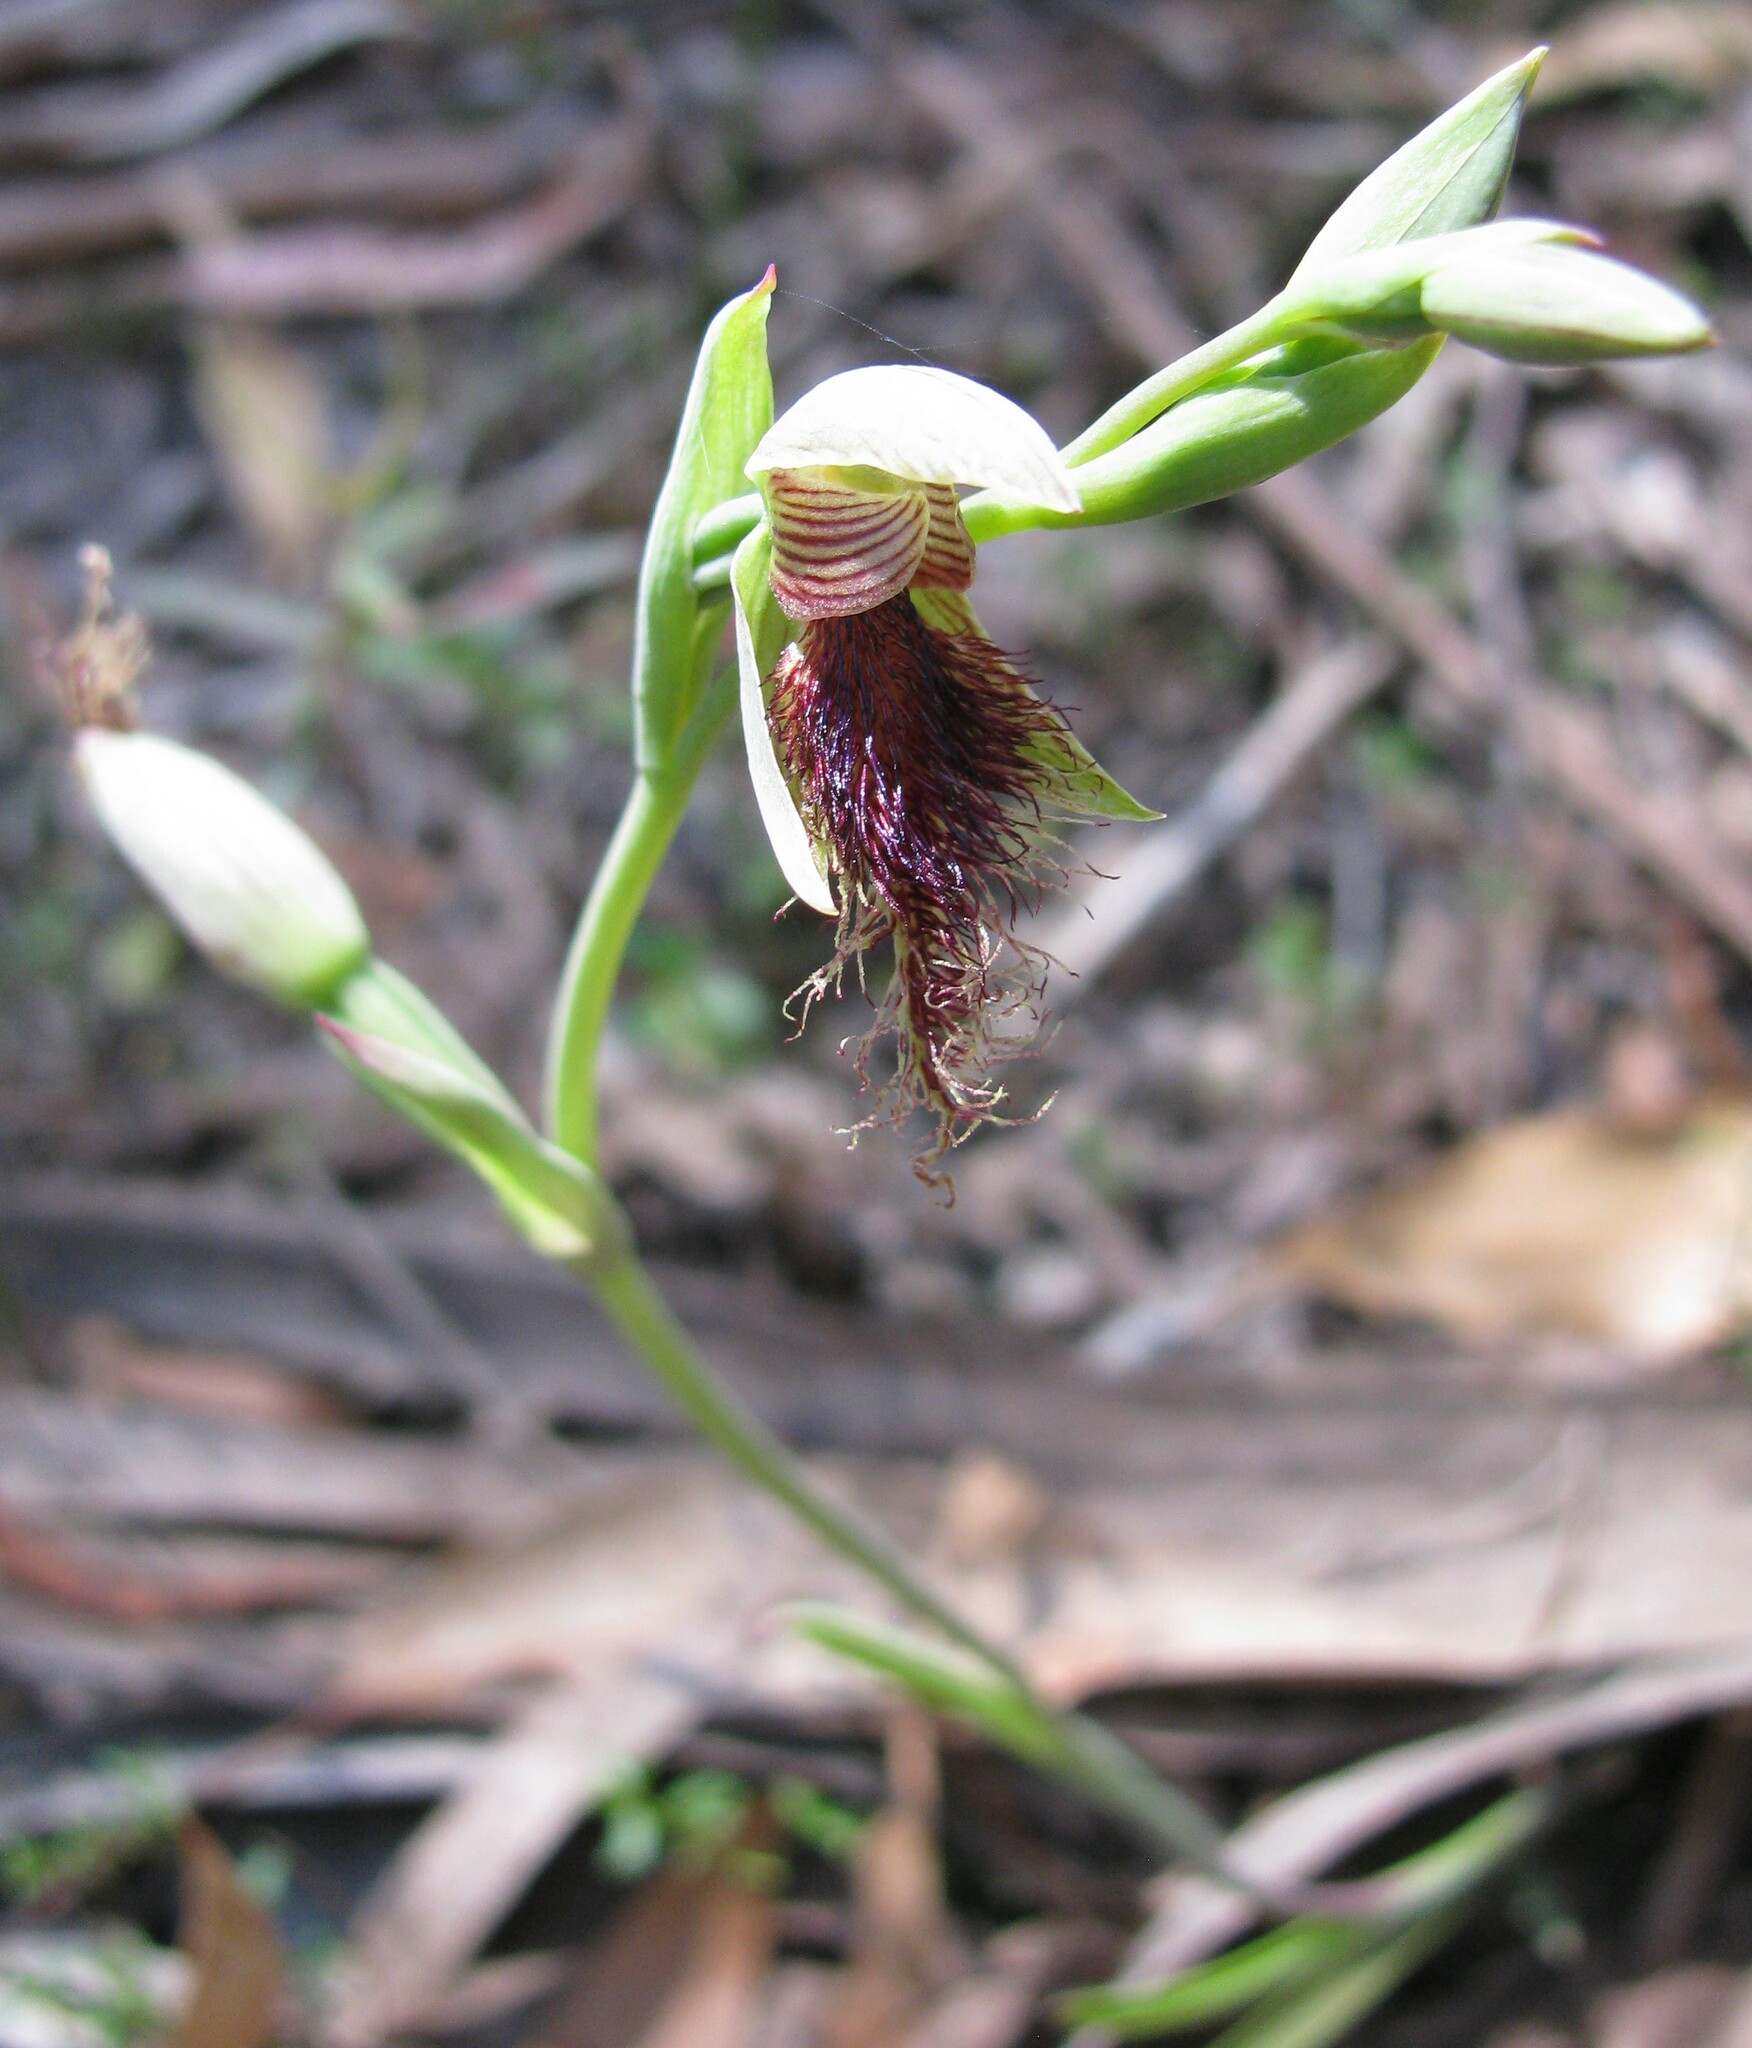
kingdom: Plantae
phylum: Tracheophyta
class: Liliopsida
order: Asparagales
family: Orchidaceae
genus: Calochilus
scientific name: Calochilus robertsonii
